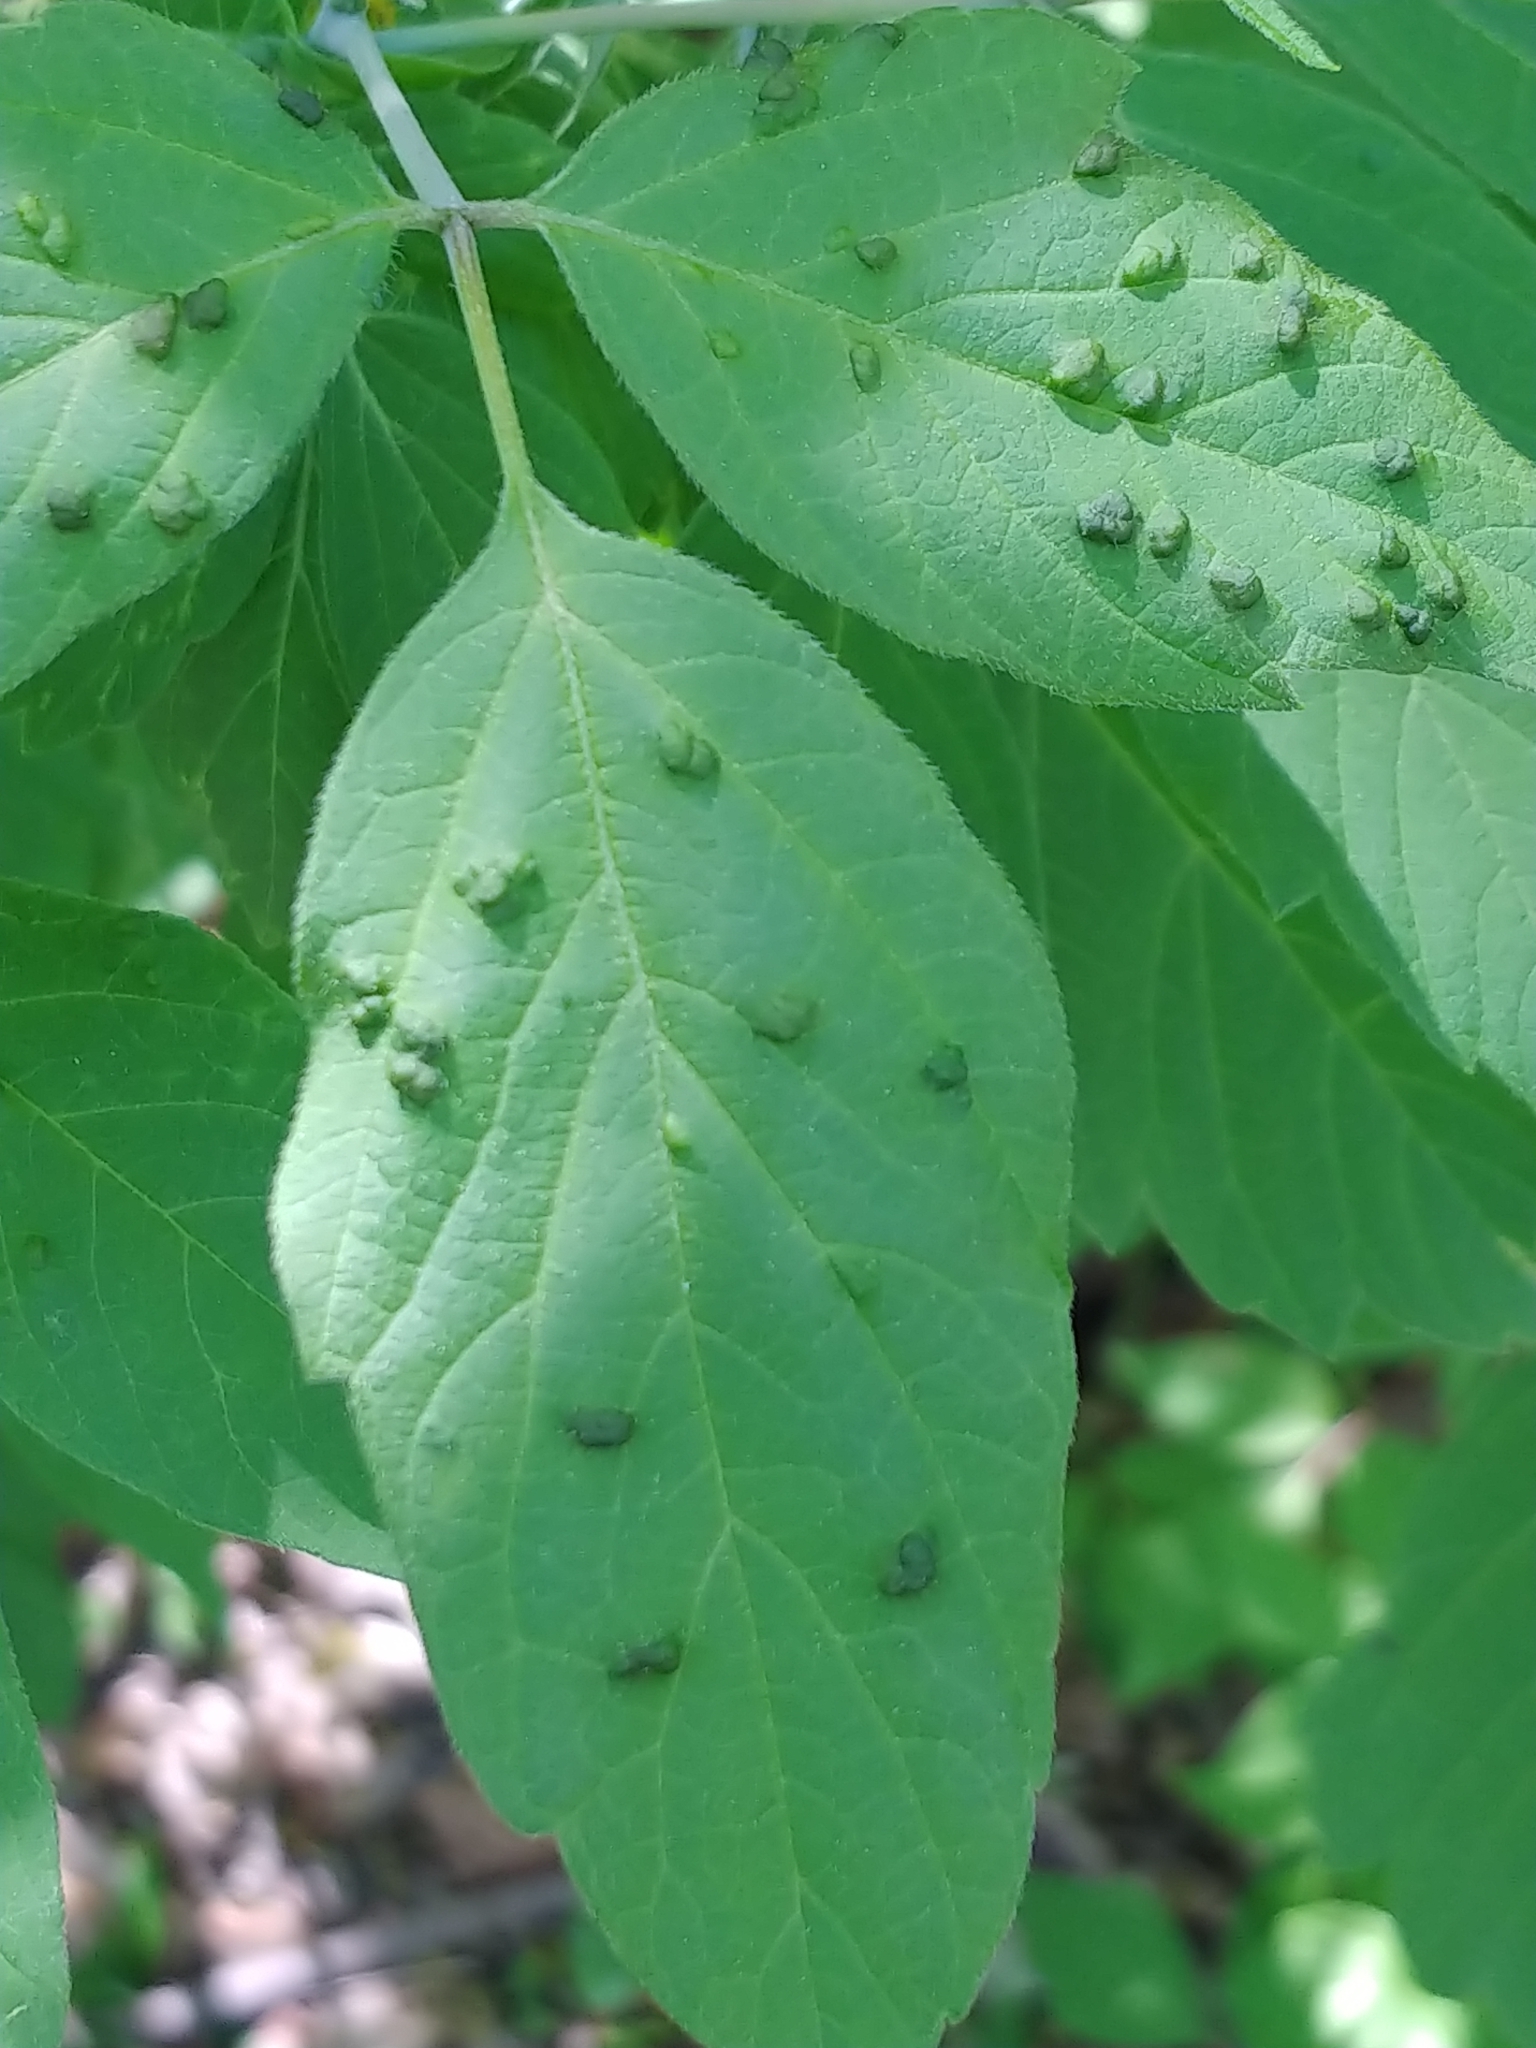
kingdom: Animalia
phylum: Arthropoda
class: Arachnida
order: Trombidiformes
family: Eriophyidae
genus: Aceria
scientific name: Aceria
